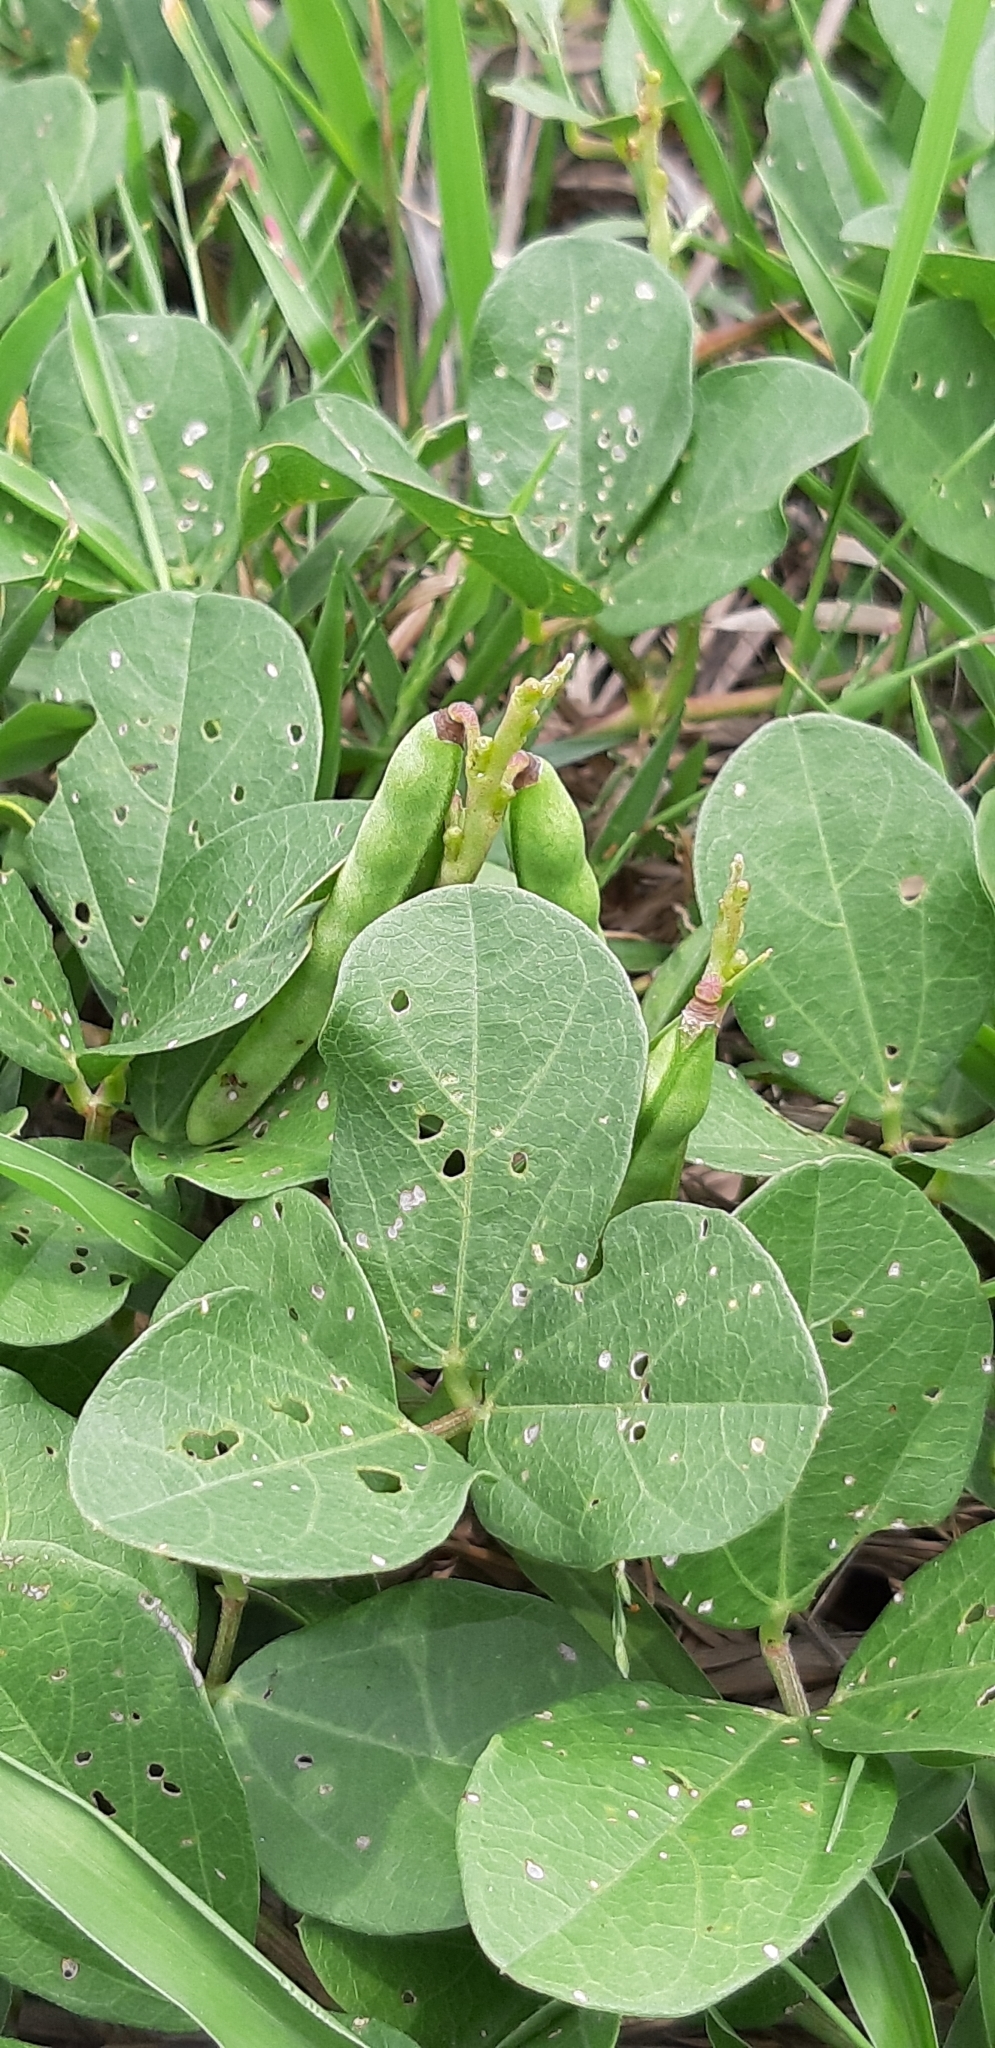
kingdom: Plantae
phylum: Tracheophyta
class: Magnoliopsida
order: Fabales
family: Fabaceae
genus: Vigna
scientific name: Vigna marina
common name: Dune-bean
